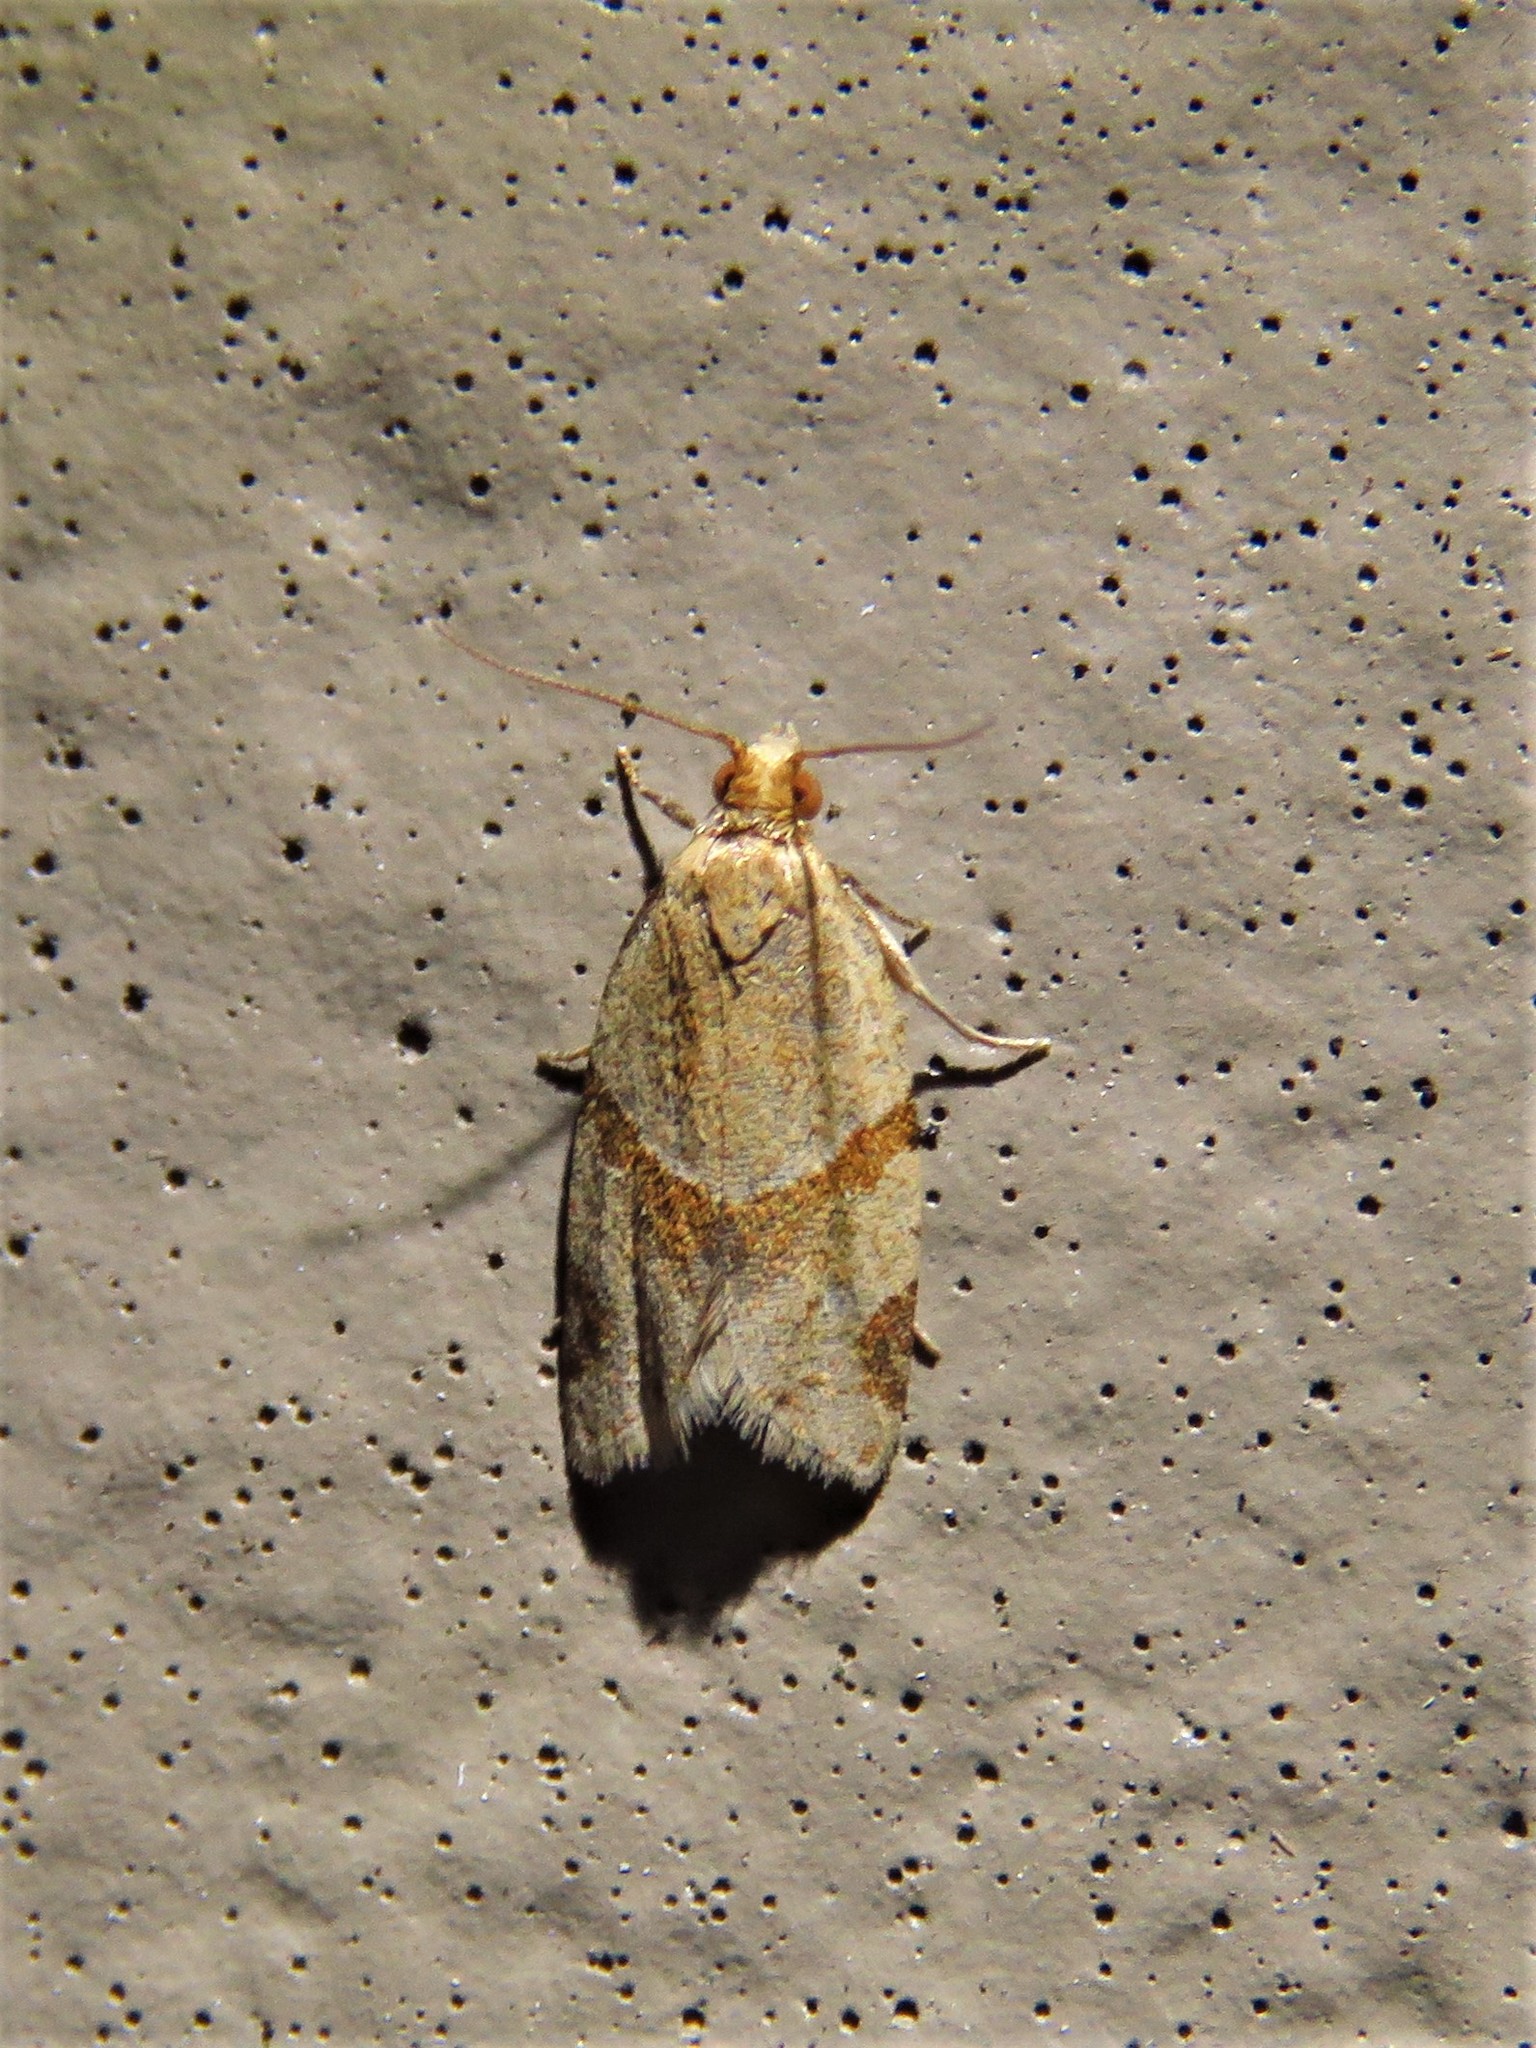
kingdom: Animalia
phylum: Arthropoda
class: Insecta
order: Lepidoptera
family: Tortricidae
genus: Clepsis
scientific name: Clepsis peritana
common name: Garden tortrix
